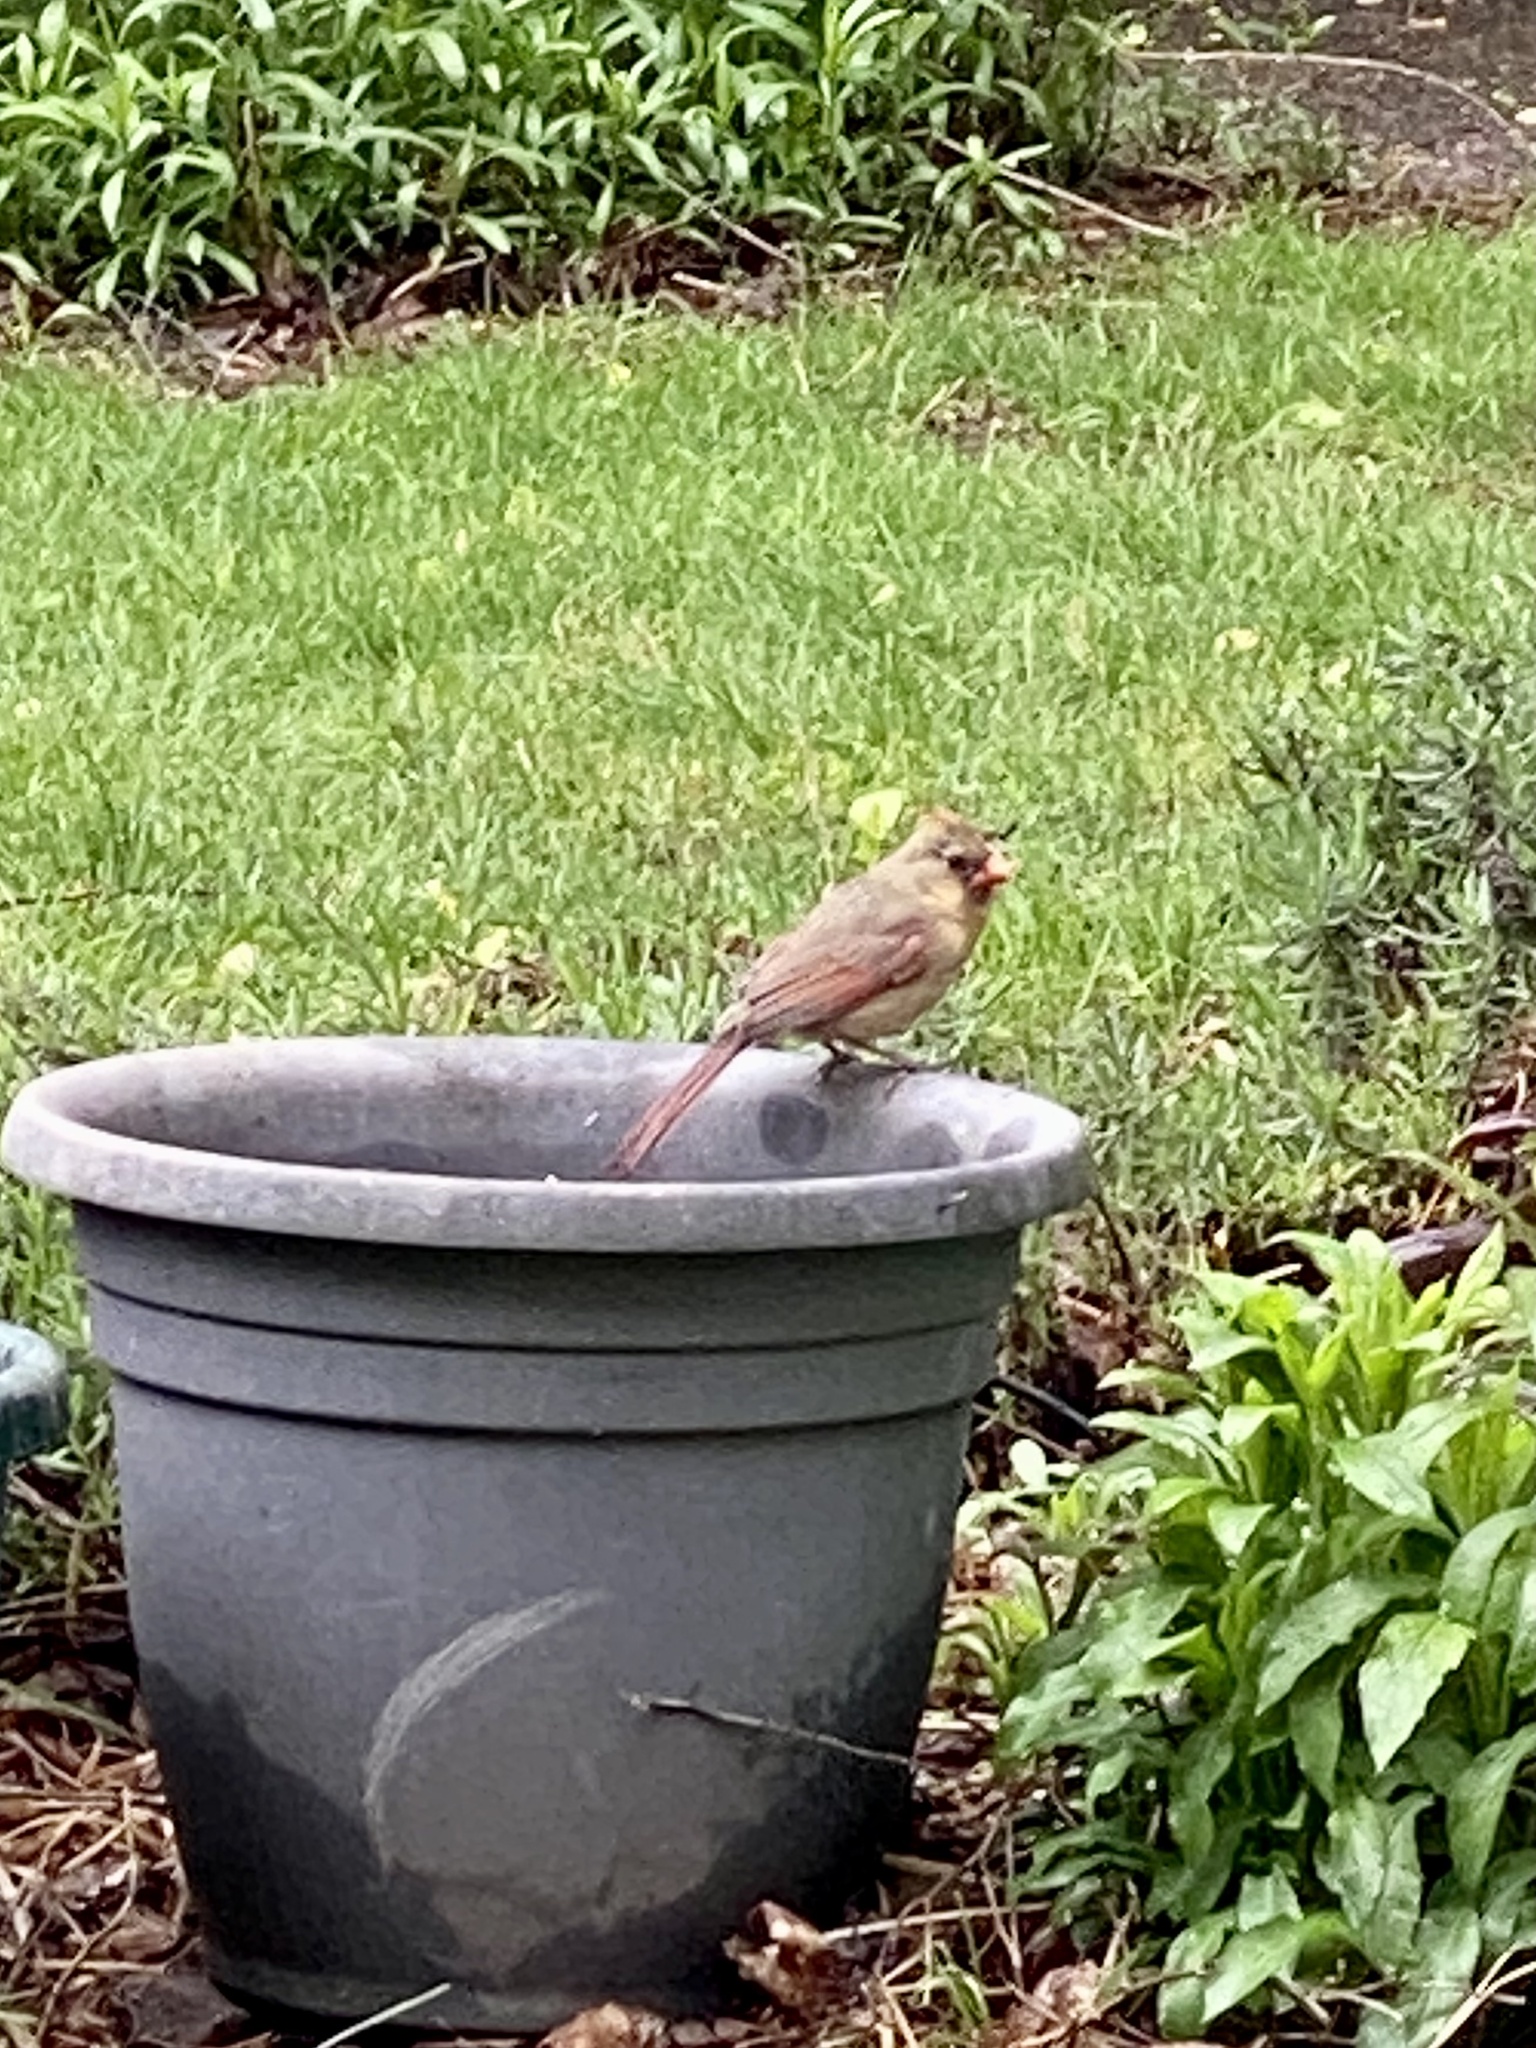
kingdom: Animalia
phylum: Chordata
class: Aves
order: Passeriformes
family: Cardinalidae
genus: Cardinalis
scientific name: Cardinalis cardinalis
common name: Northern cardinal
